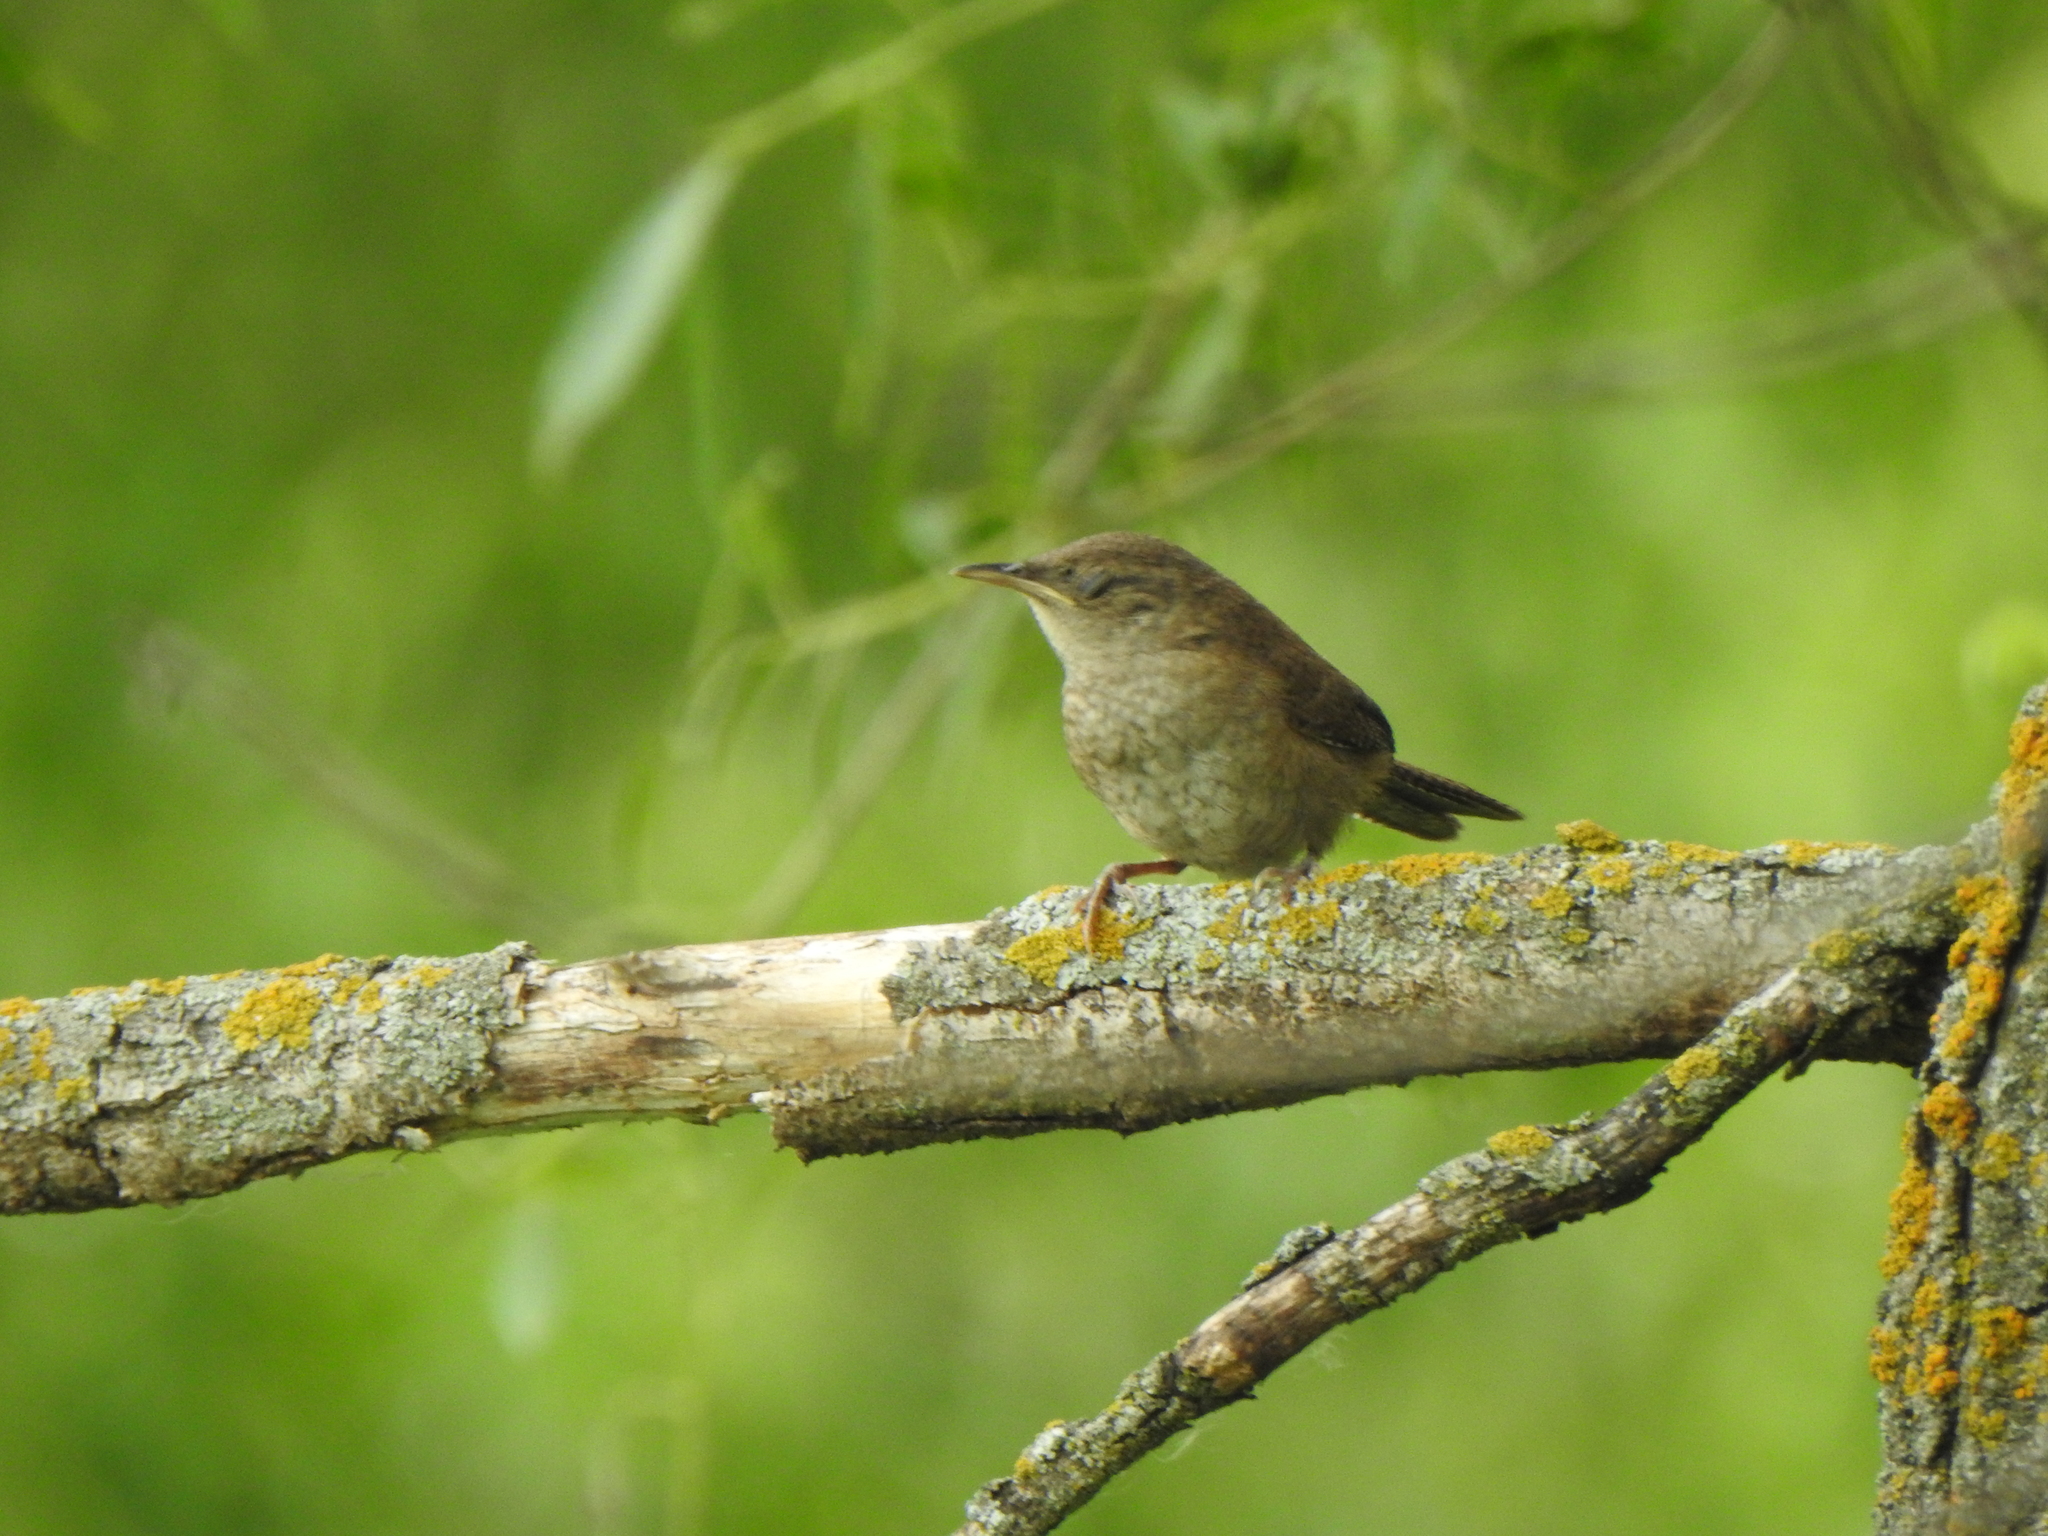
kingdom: Animalia
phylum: Chordata
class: Aves
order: Passeriformes
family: Troglodytidae
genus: Troglodytes
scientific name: Troglodytes aedon
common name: House wren
